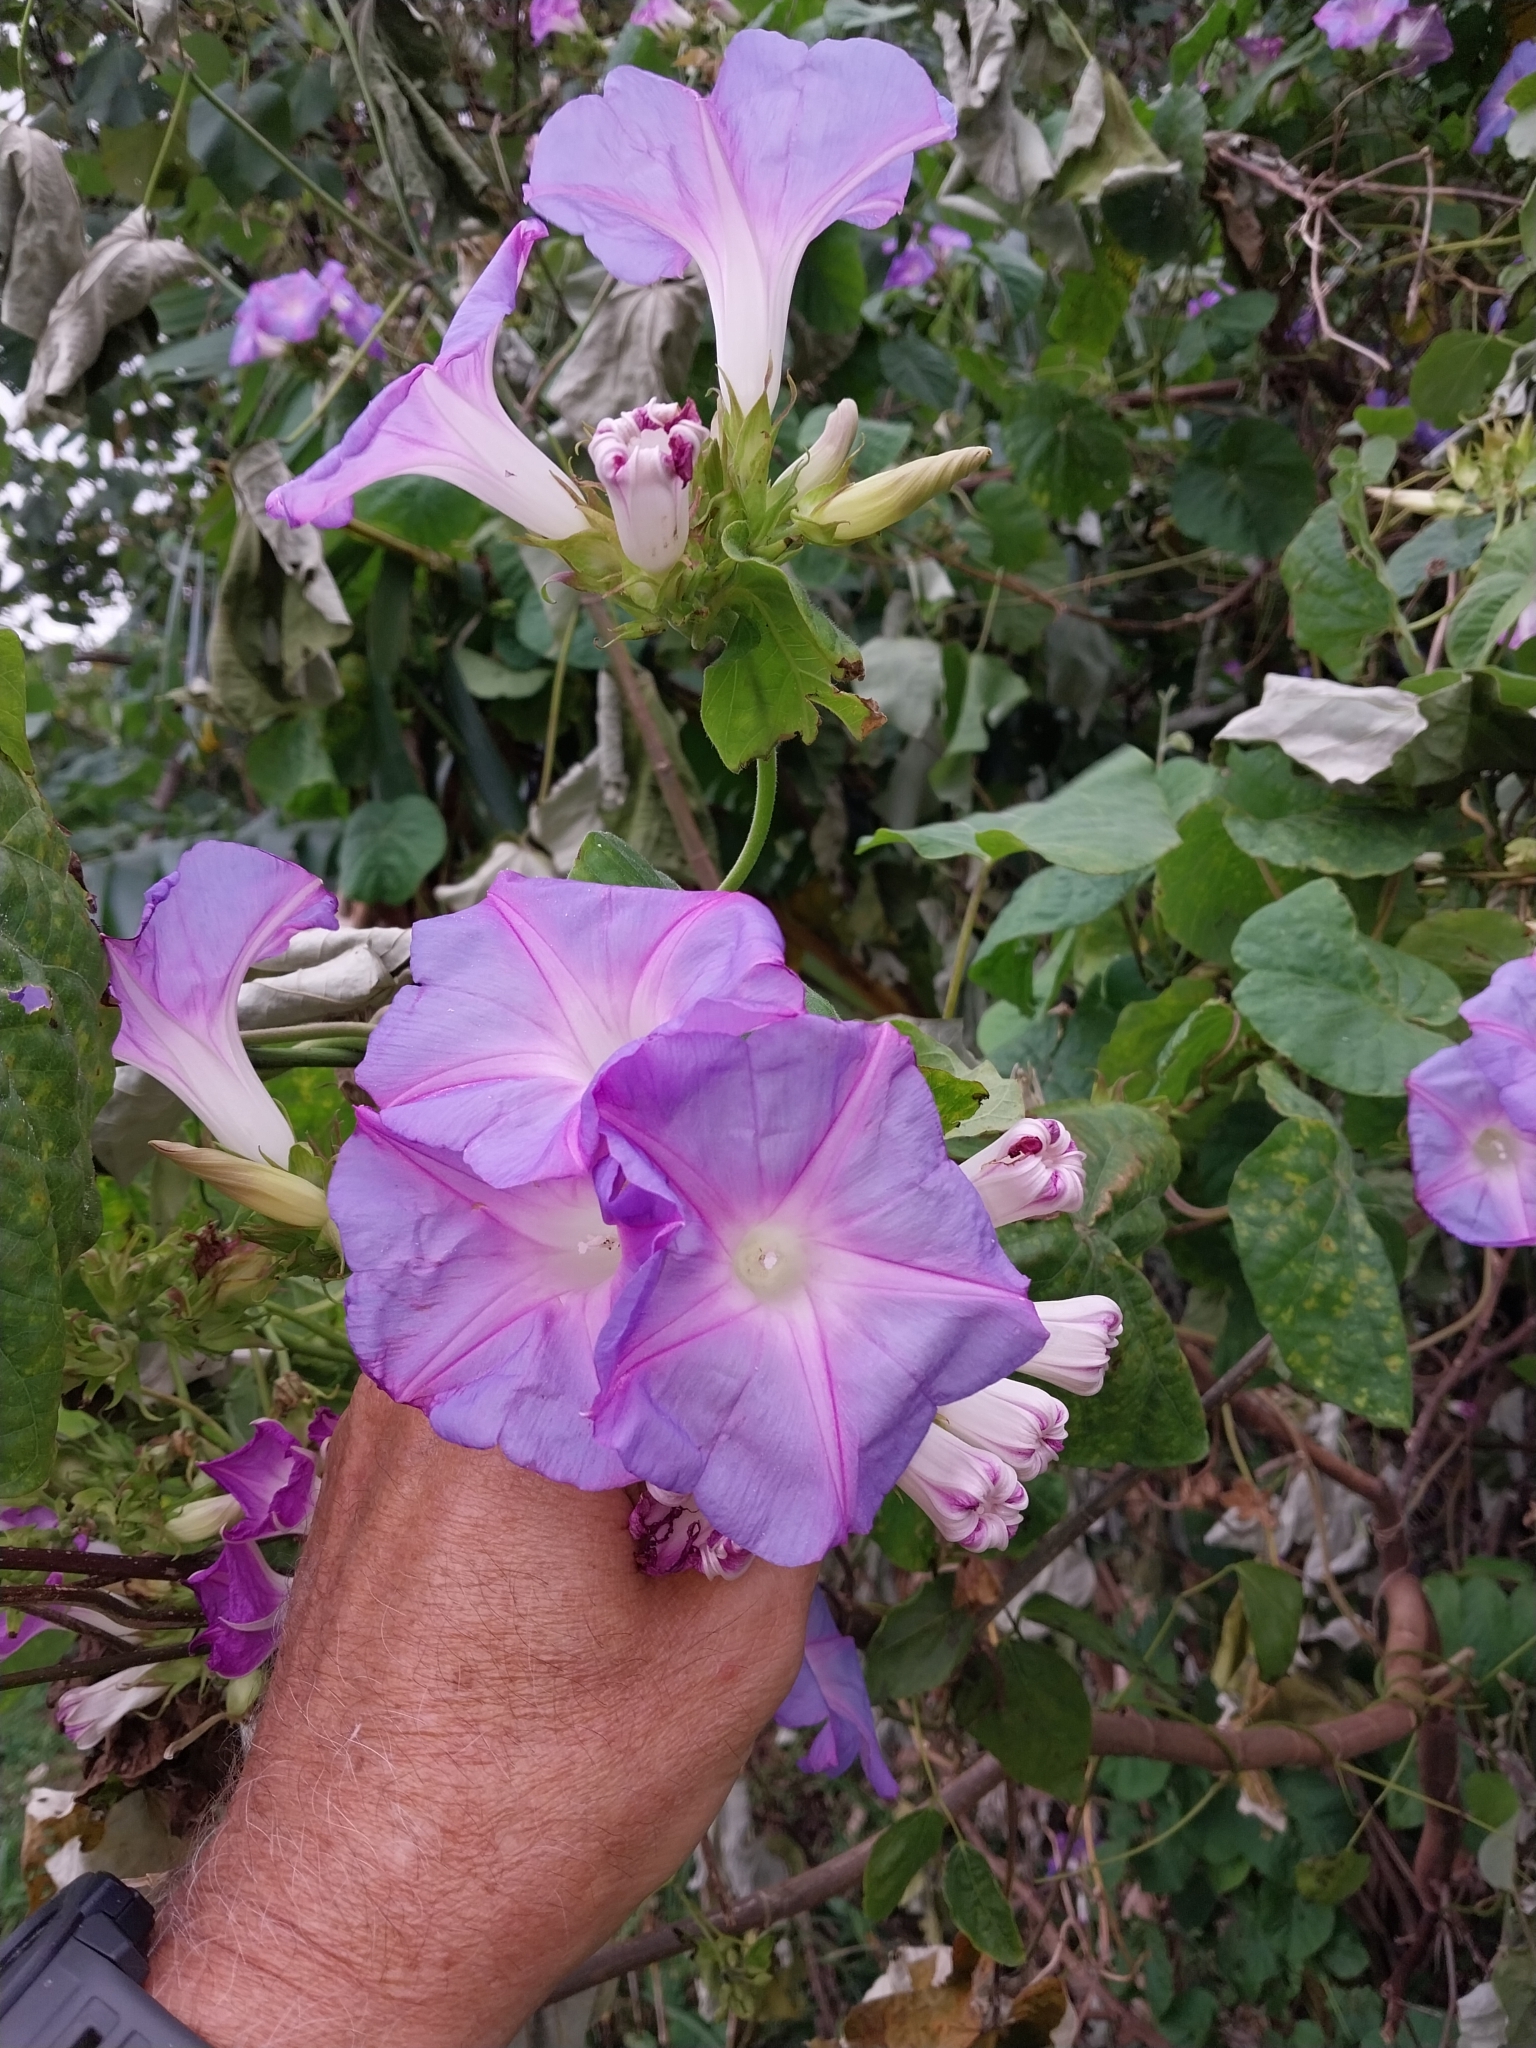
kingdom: Plantae
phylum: Tracheophyta
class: Magnoliopsida
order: Solanales
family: Convolvulaceae
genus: Ipomoea
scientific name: Ipomoea indica
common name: Blue dawnflower
